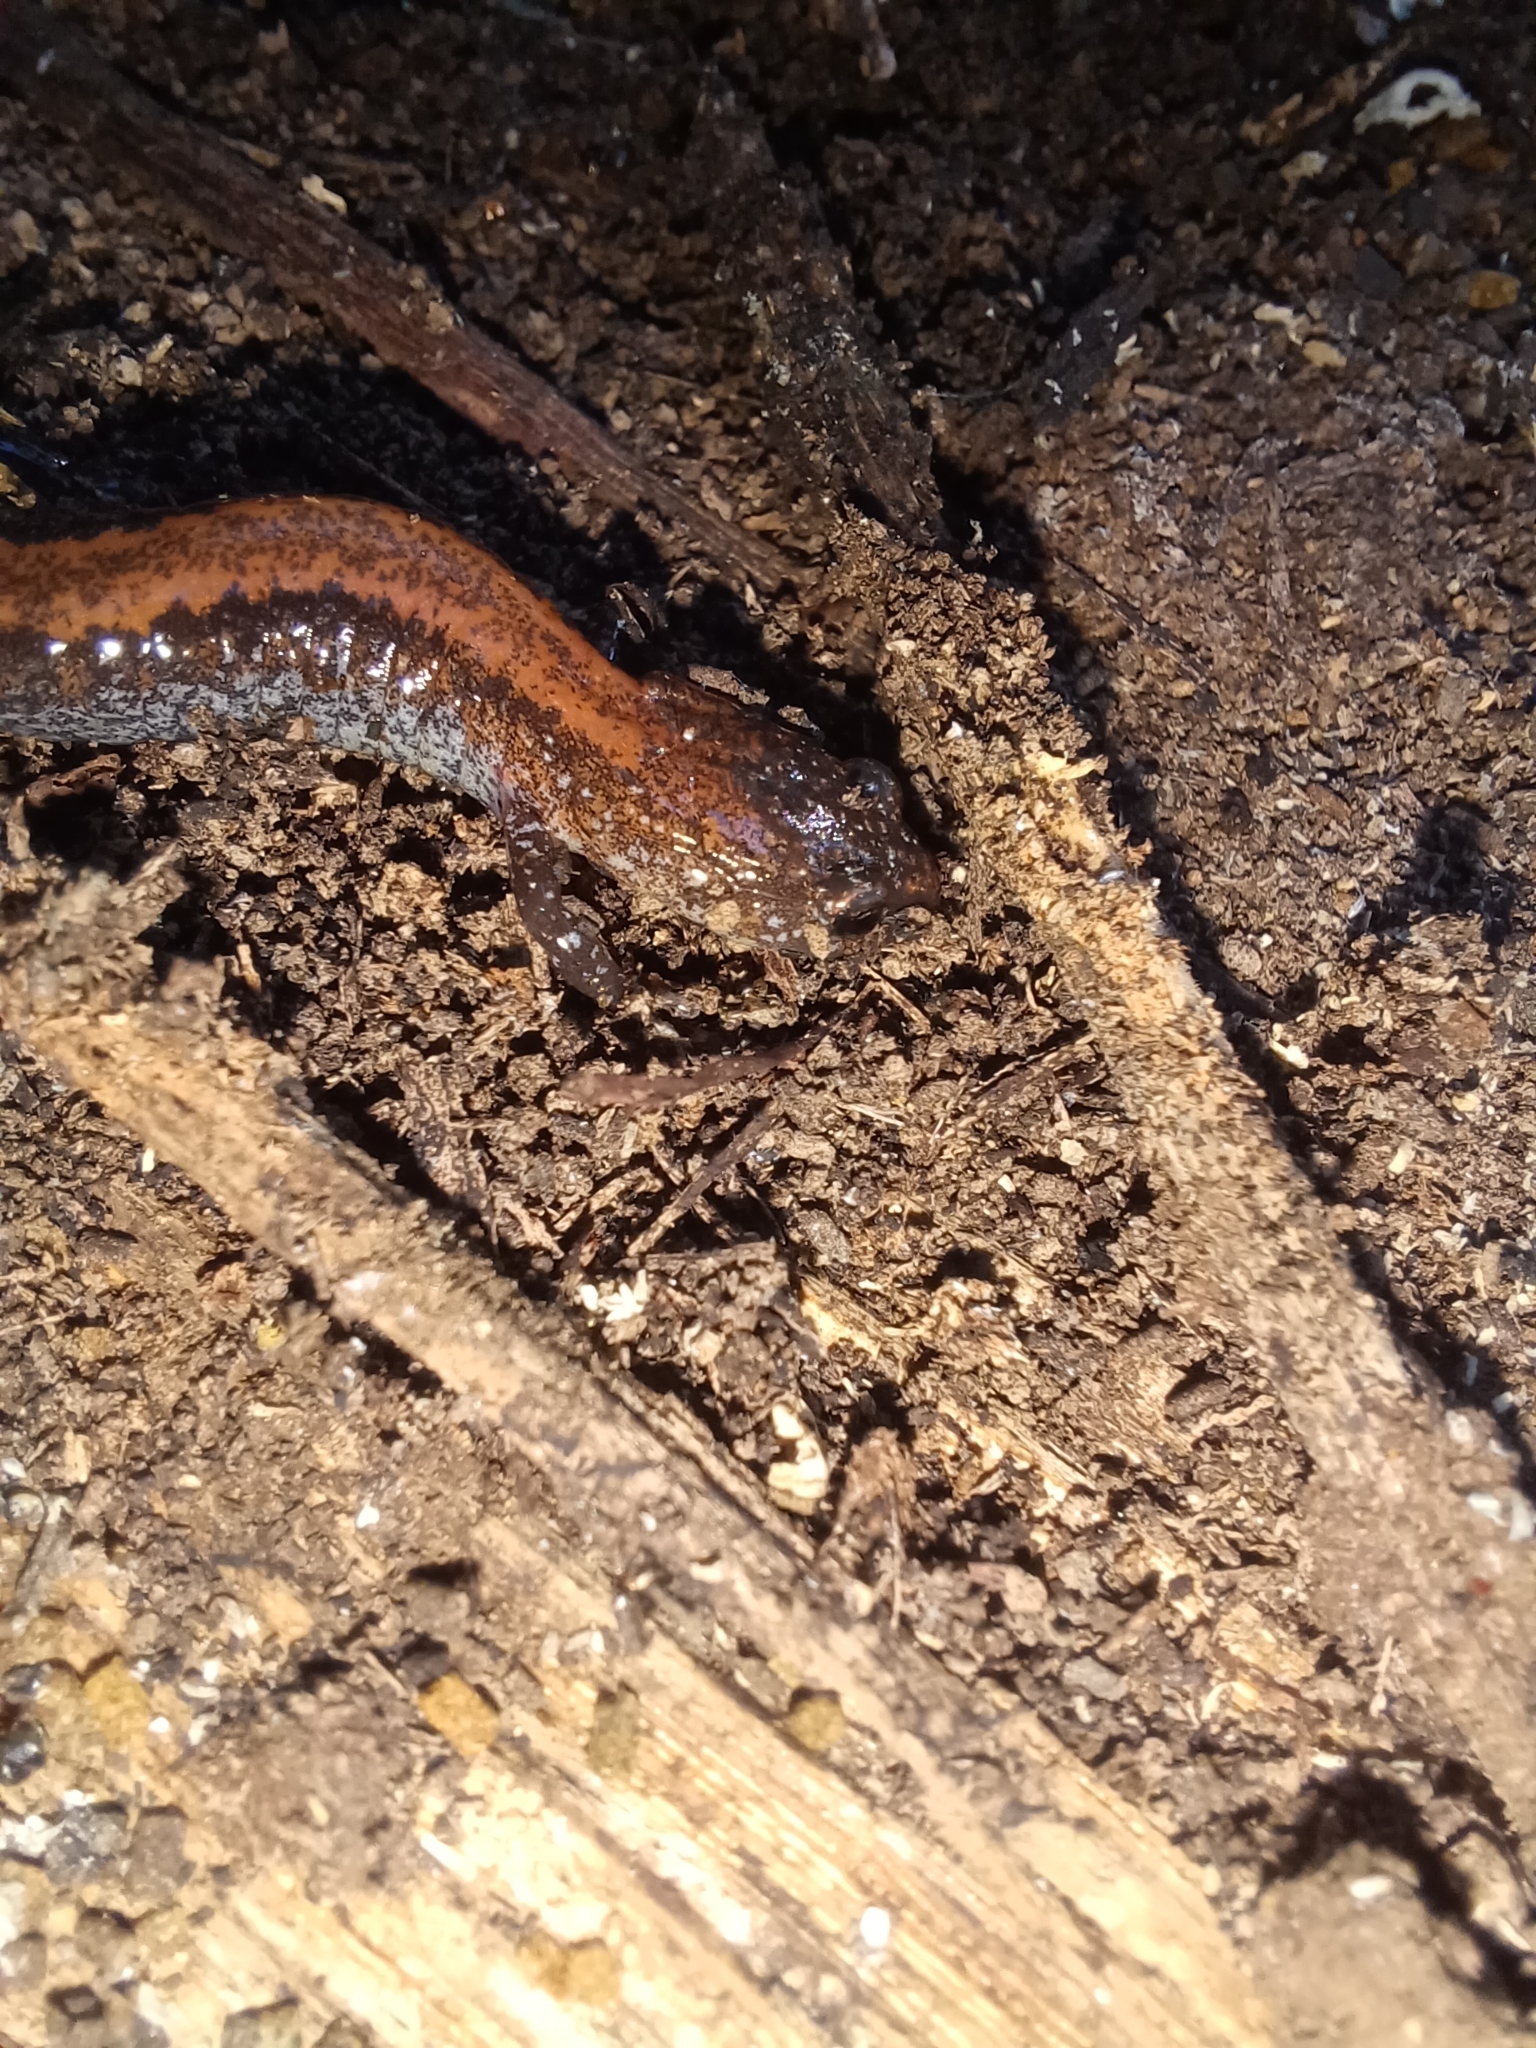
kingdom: Animalia
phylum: Chordata
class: Amphibia
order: Caudata
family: Plethodontidae
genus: Plethodon
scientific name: Plethodon cinereus
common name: Redback salamander
